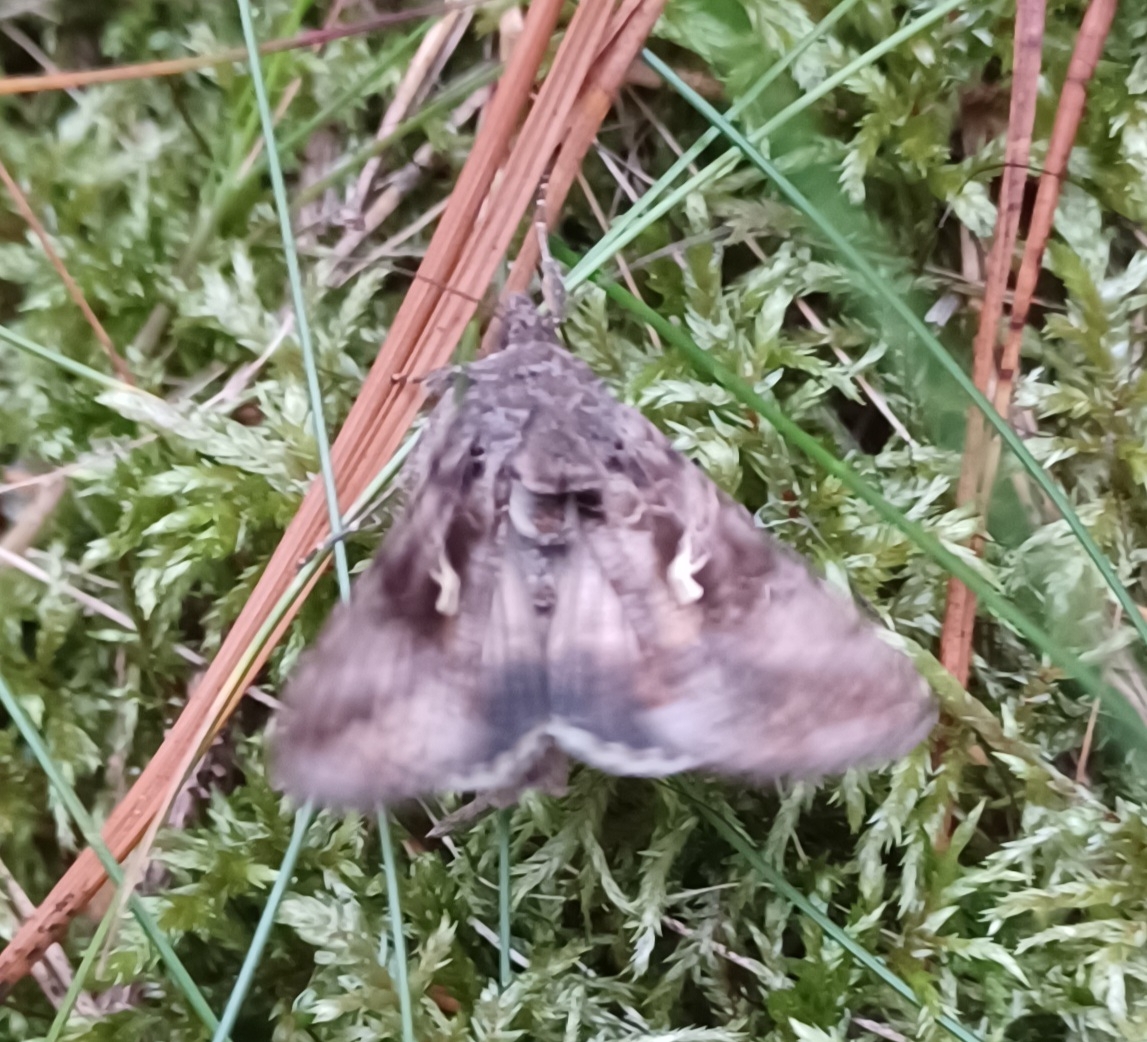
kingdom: Animalia
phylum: Arthropoda
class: Insecta
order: Lepidoptera
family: Noctuidae
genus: Autographa
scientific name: Autographa gamma
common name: Silver y
